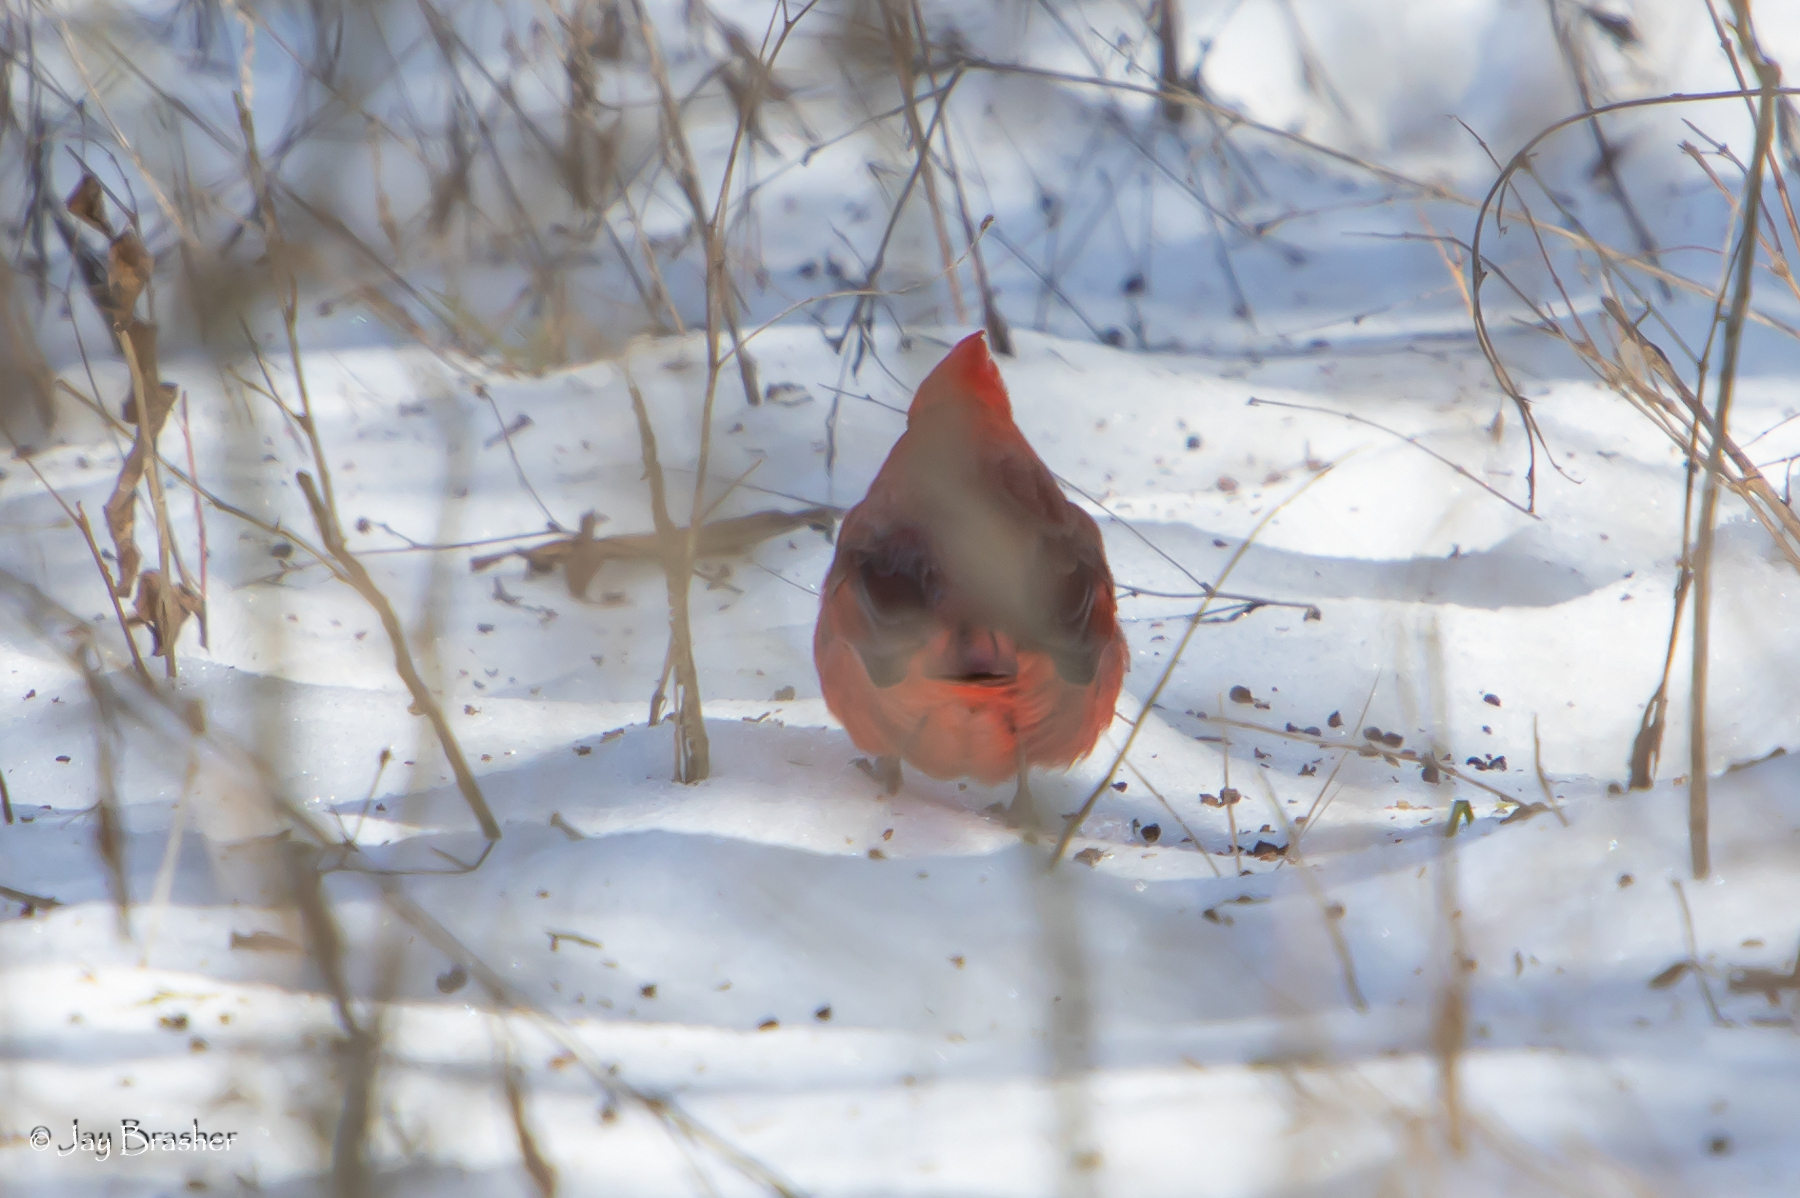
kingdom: Animalia
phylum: Chordata
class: Aves
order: Passeriformes
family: Cardinalidae
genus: Cardinalis
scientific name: Cardinalis cardinalis
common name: Northern cardinal
